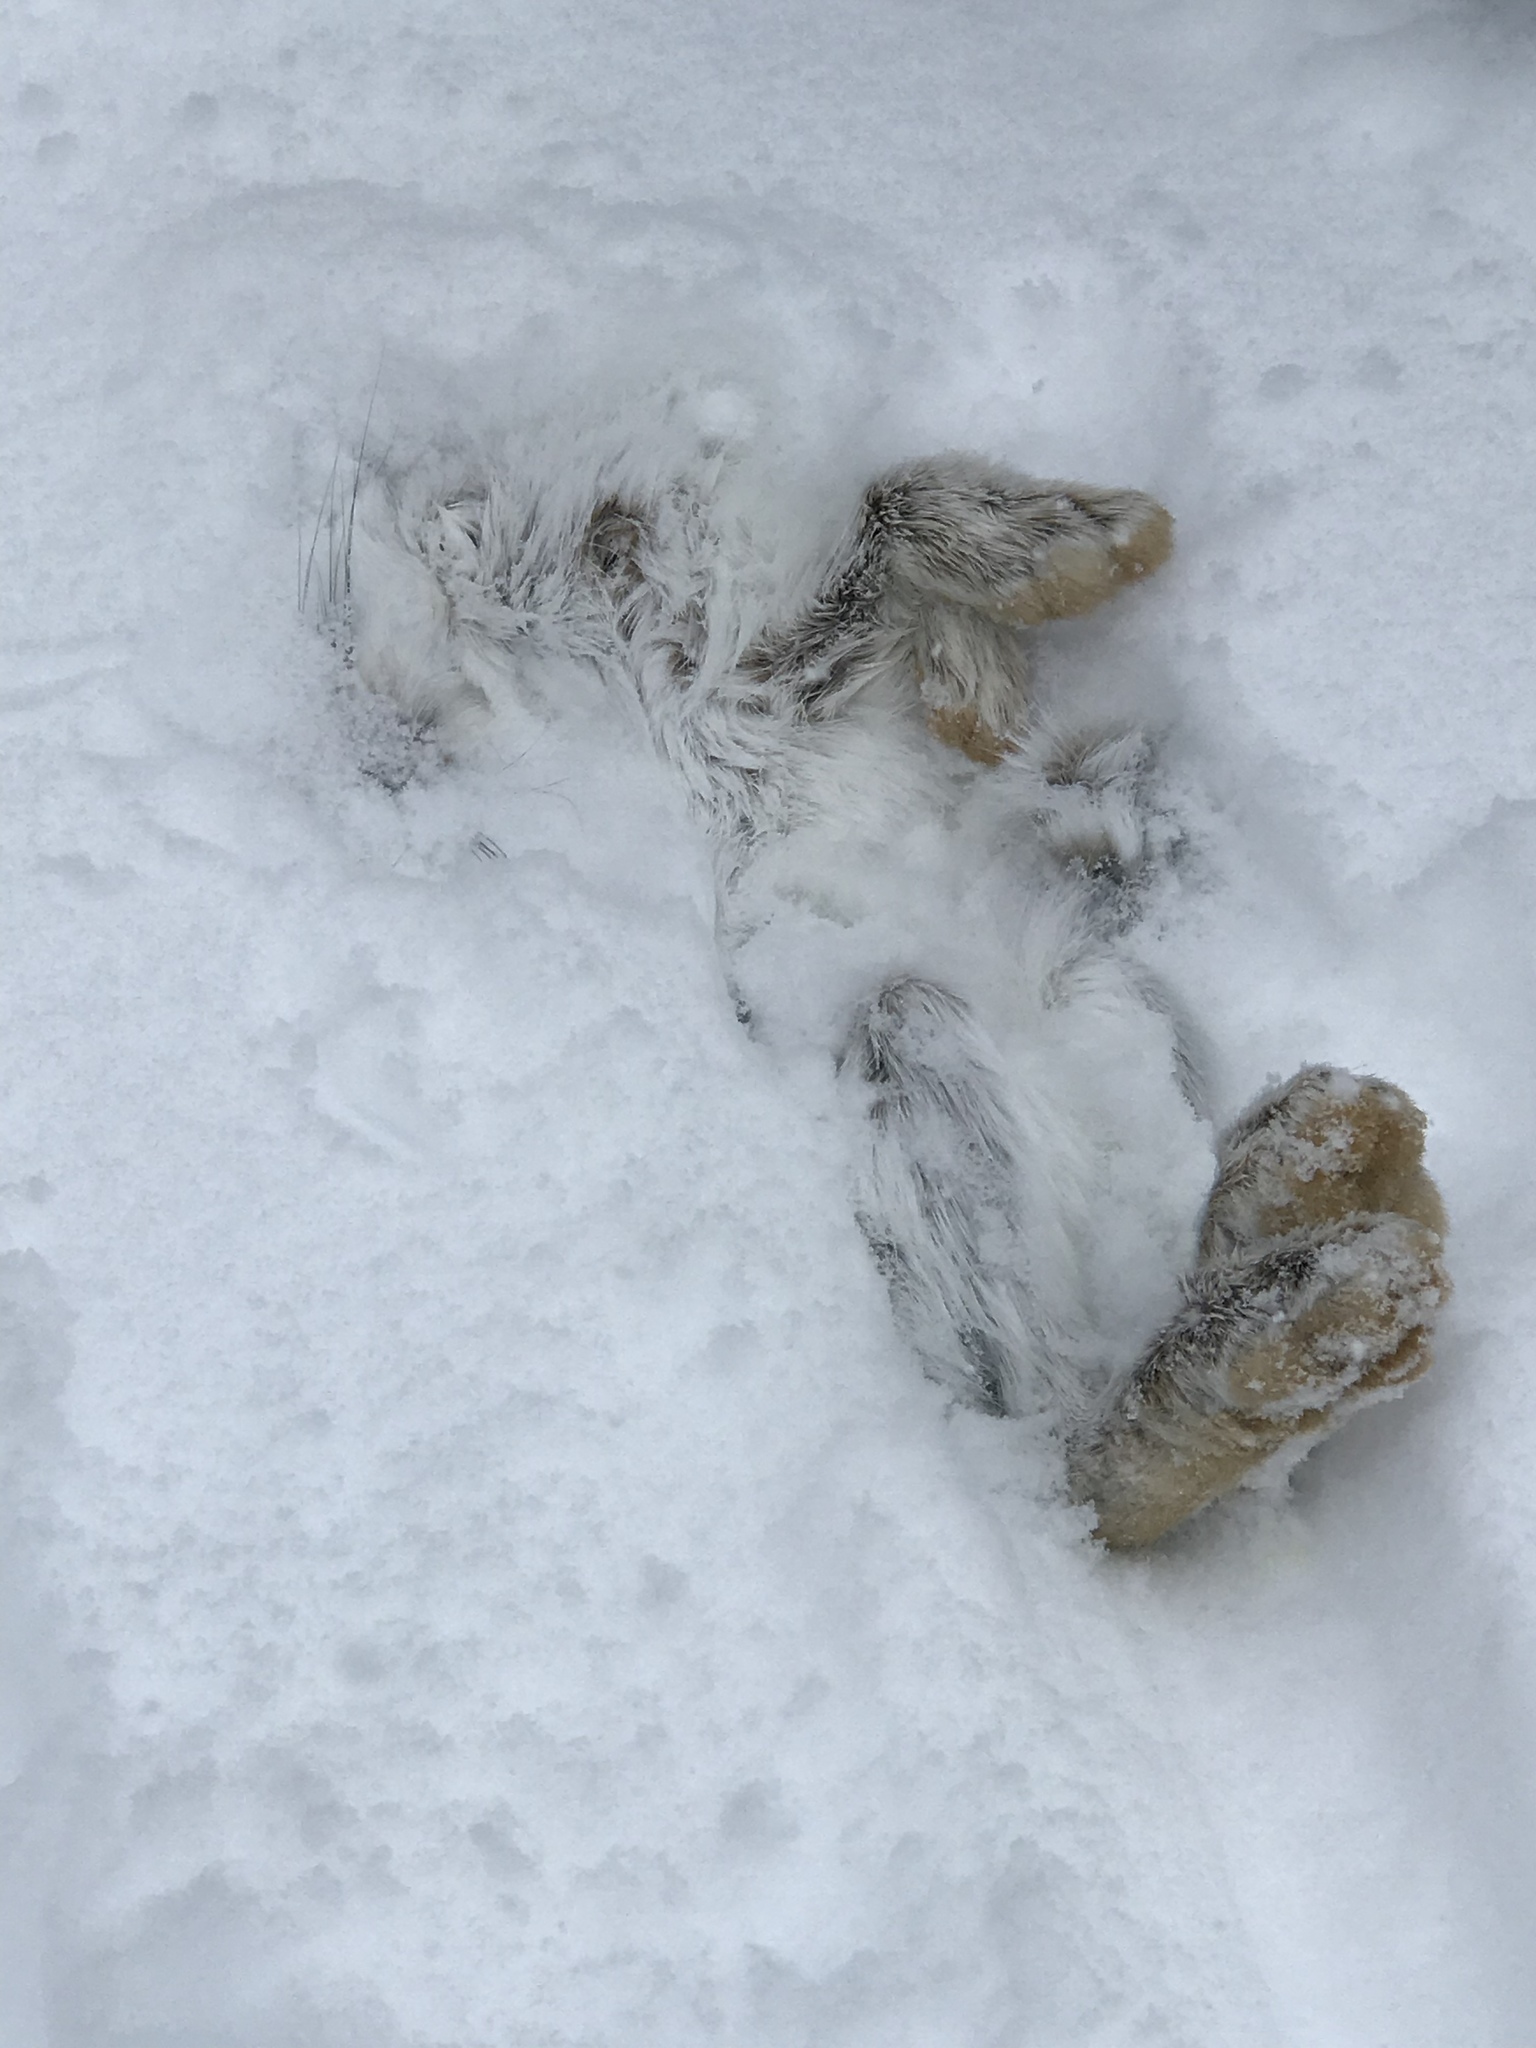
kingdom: Animalia
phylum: Chordata
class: Mammalia
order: Lagomorpha
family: Leporidae
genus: Lepus
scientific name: Lepus americanus
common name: Snowshoe hare
